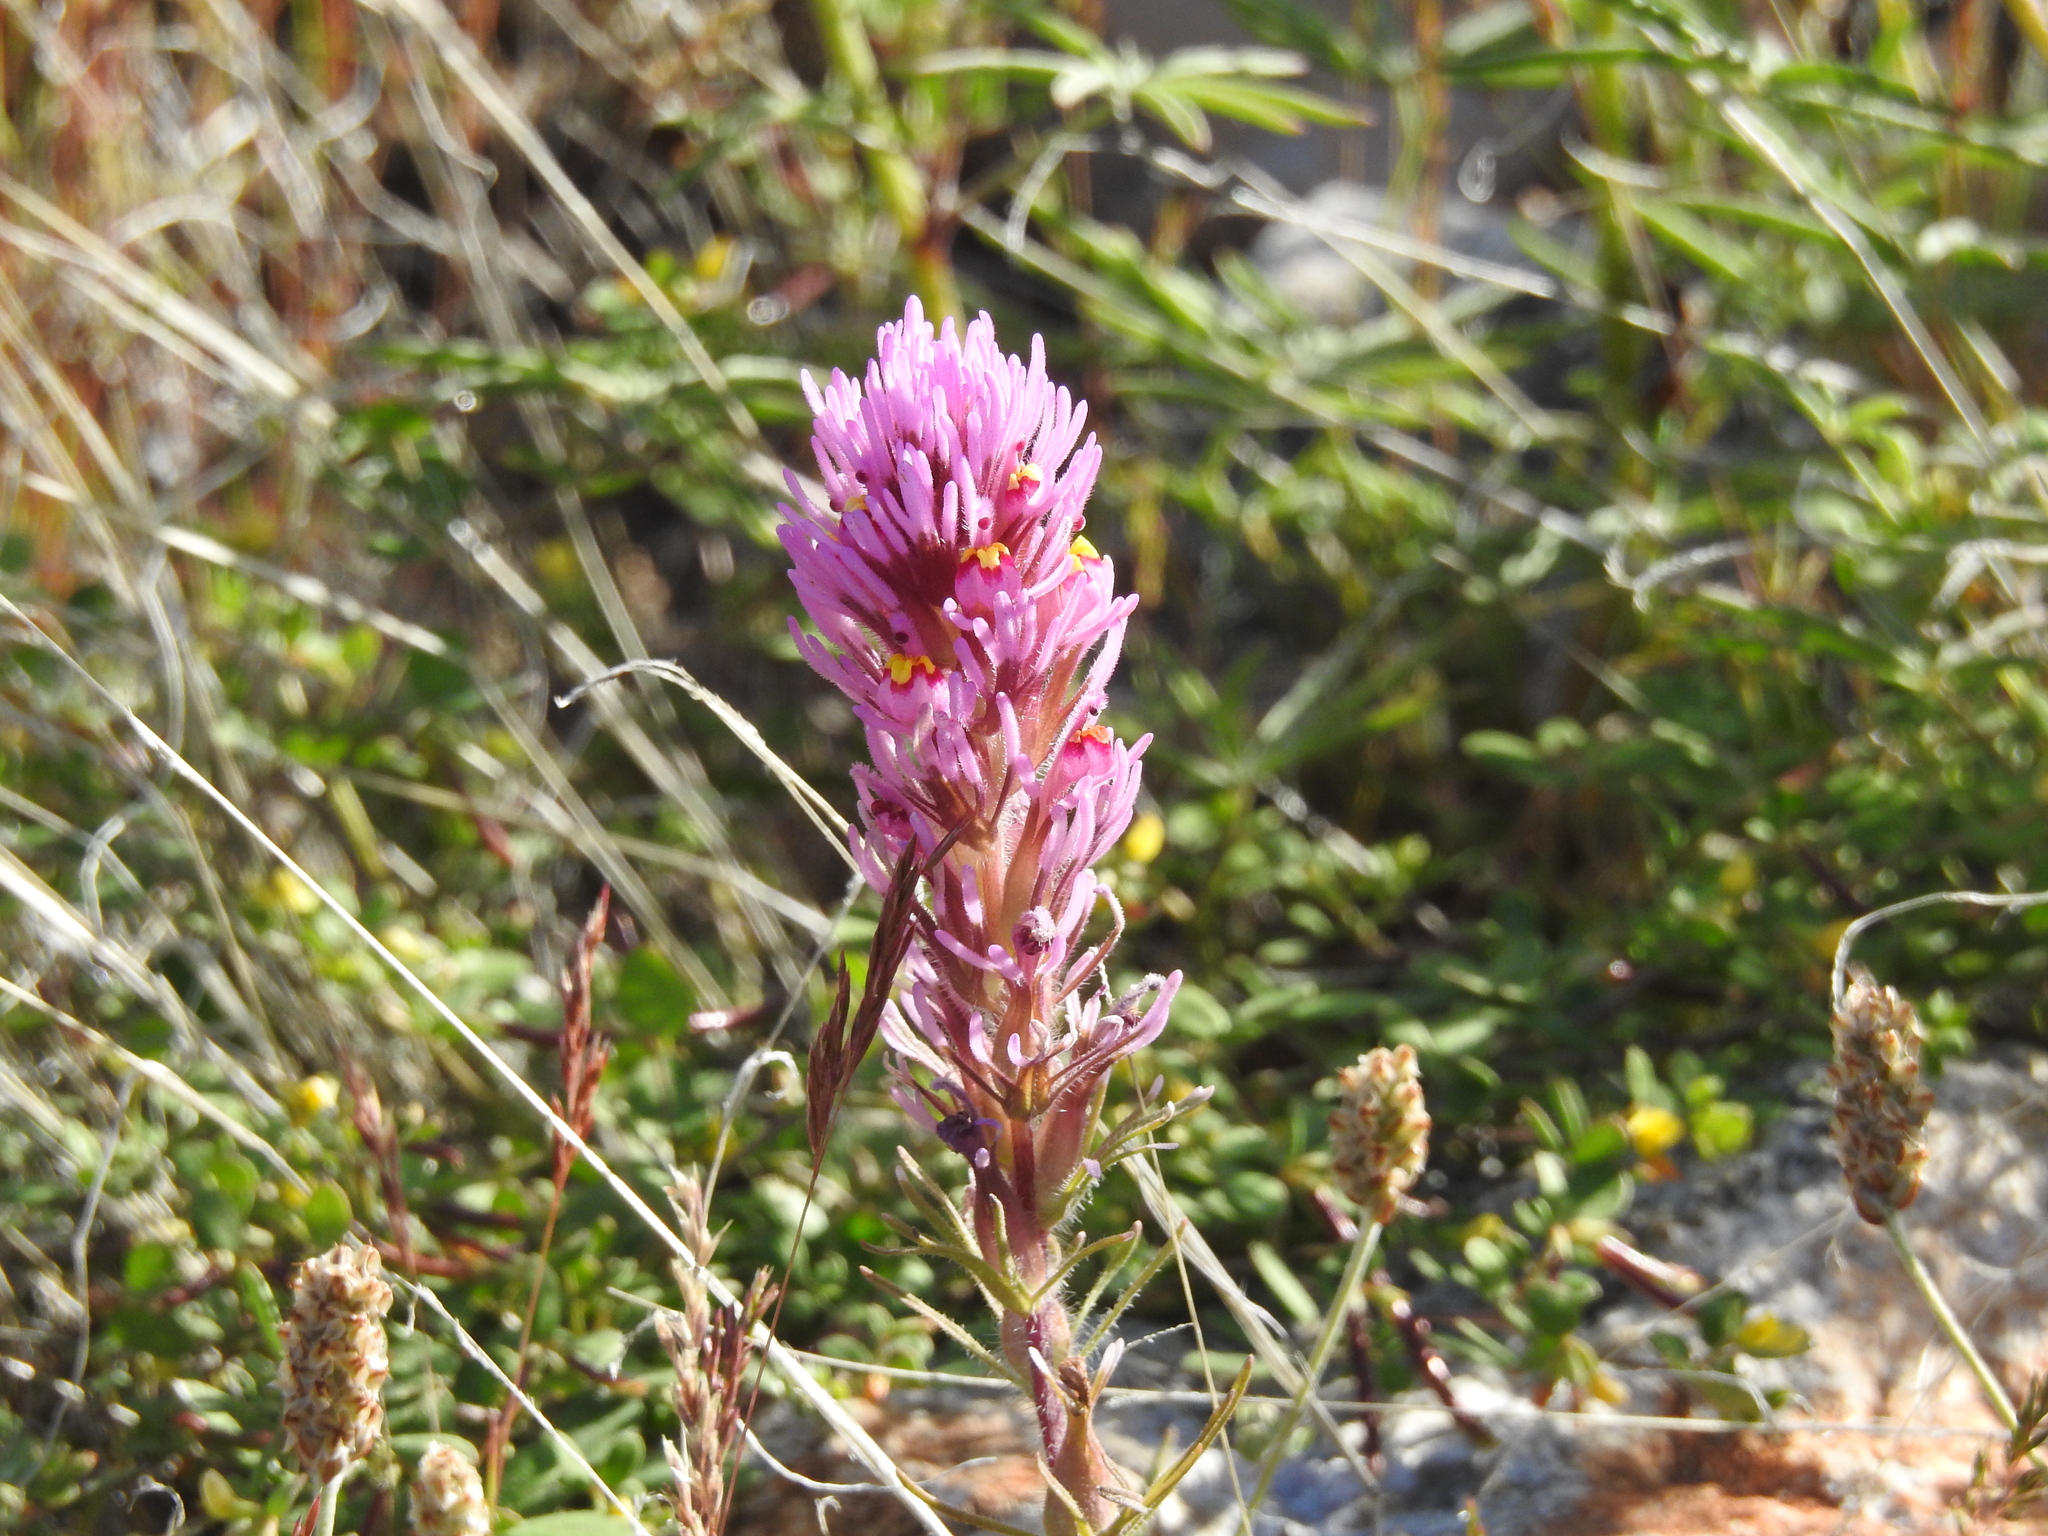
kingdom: Plantae
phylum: Tracheophyta
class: Magnoliopsida
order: Lamiales
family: Orobanchaceae
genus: Castilleja
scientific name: Castilleja exserta
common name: Purple owl-clover
